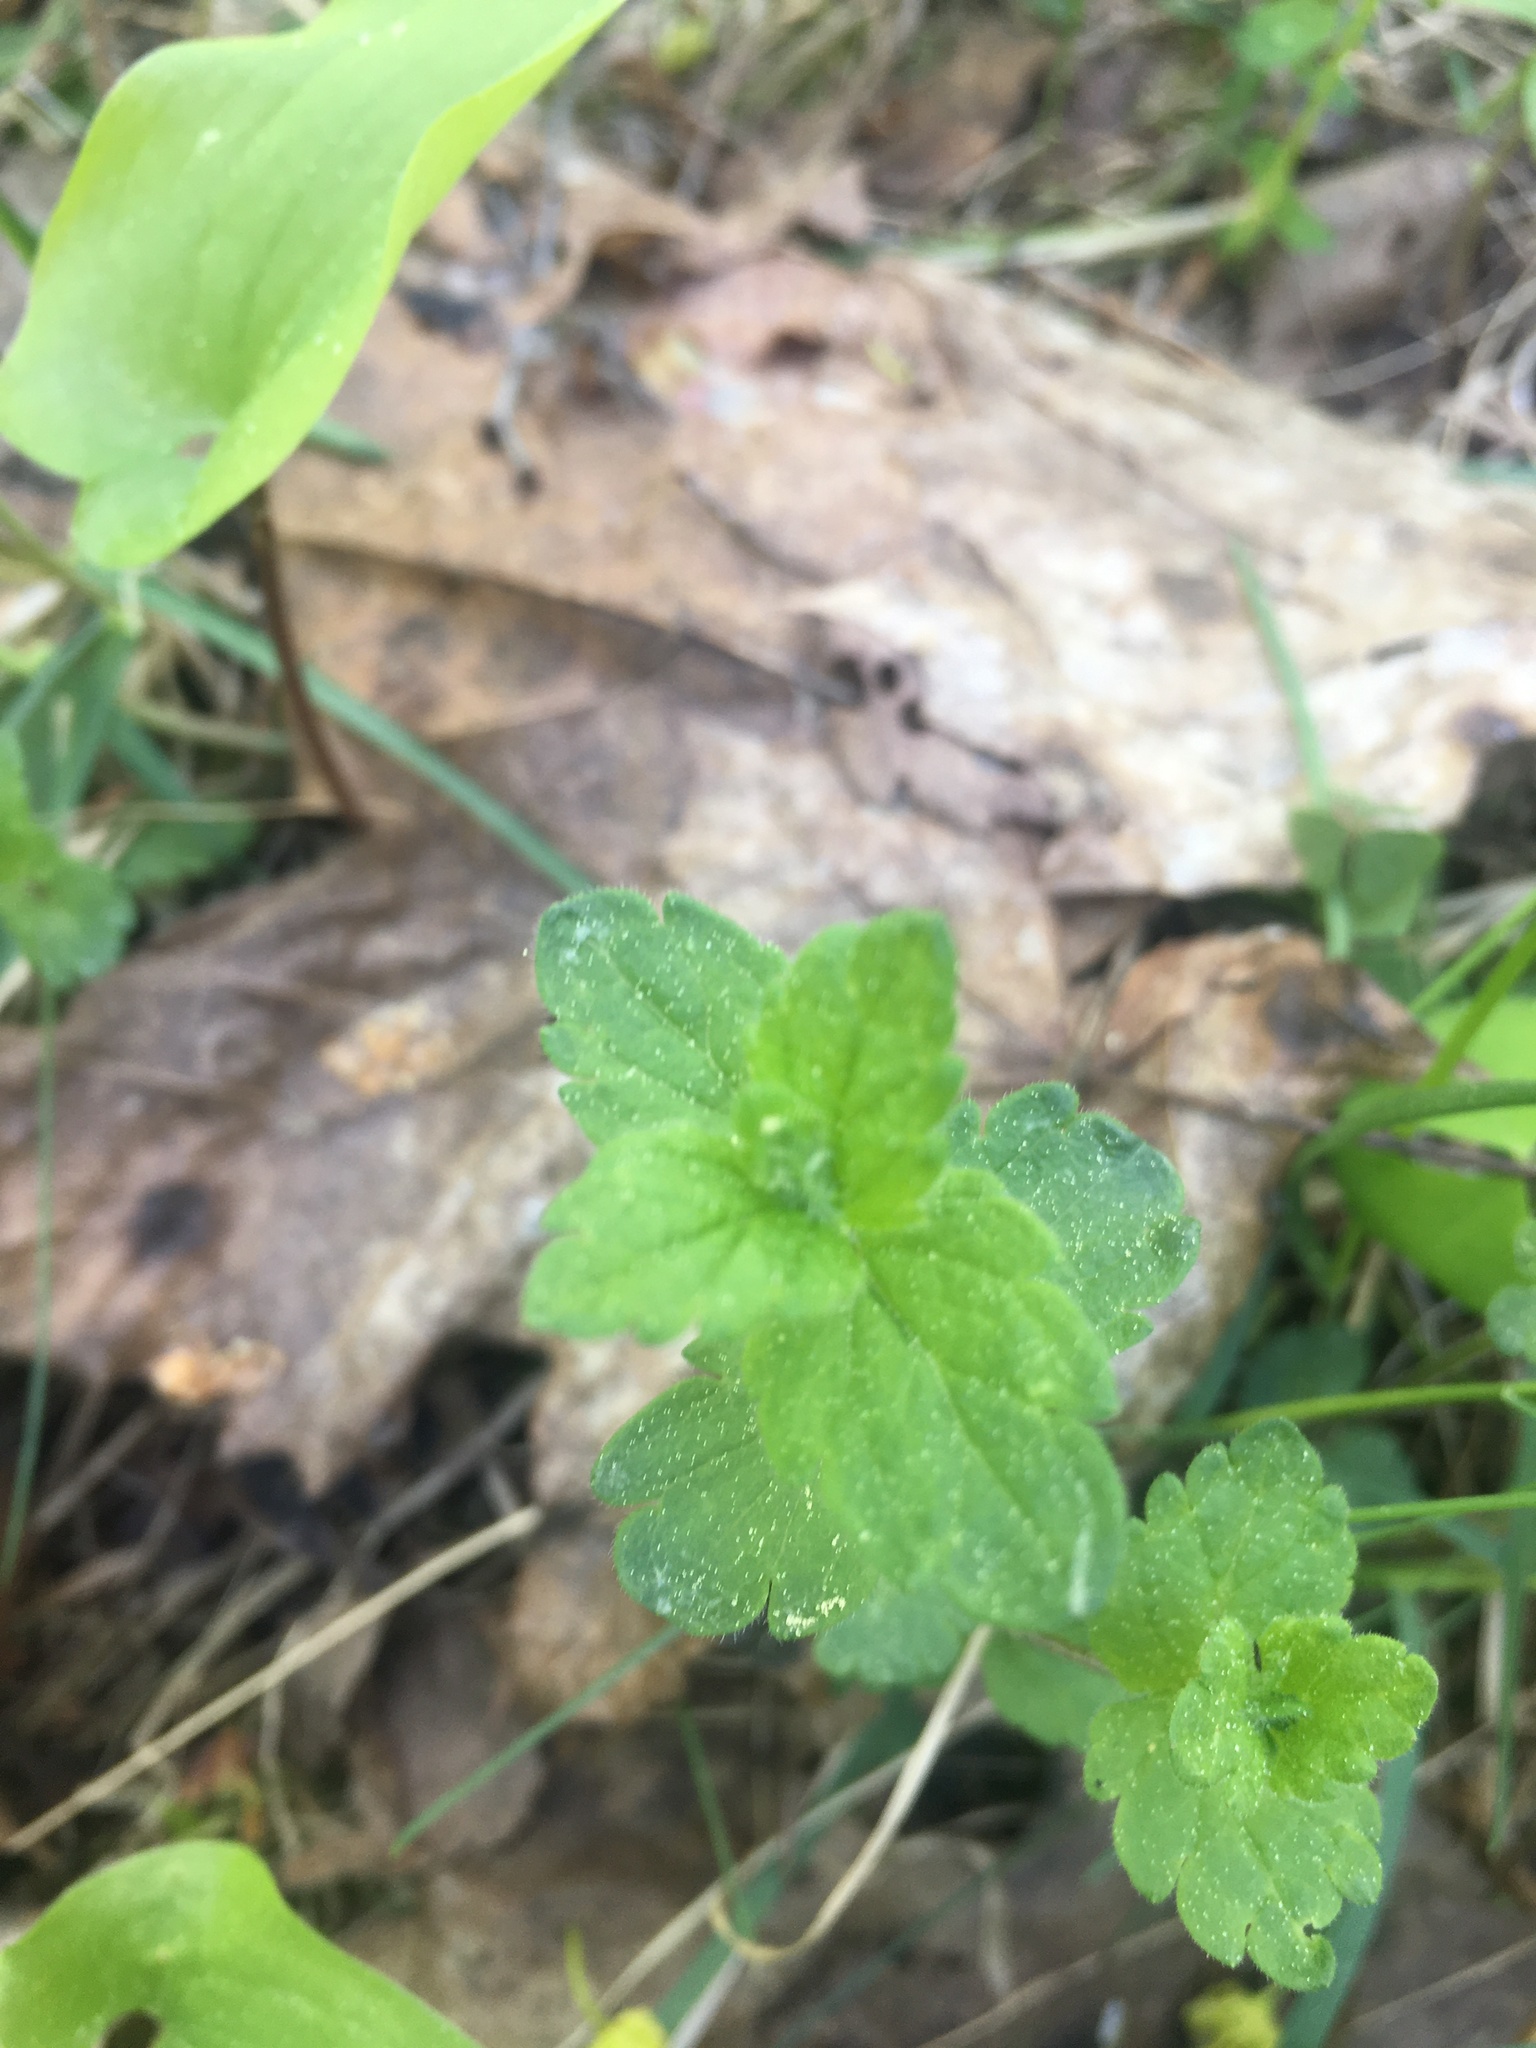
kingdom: Plantae
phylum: Tracheophyta
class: Magnoliopsida
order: Lamiales
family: Plantaginaceae
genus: Veronica
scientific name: Veronica chamaedrys
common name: Germander speedwell
